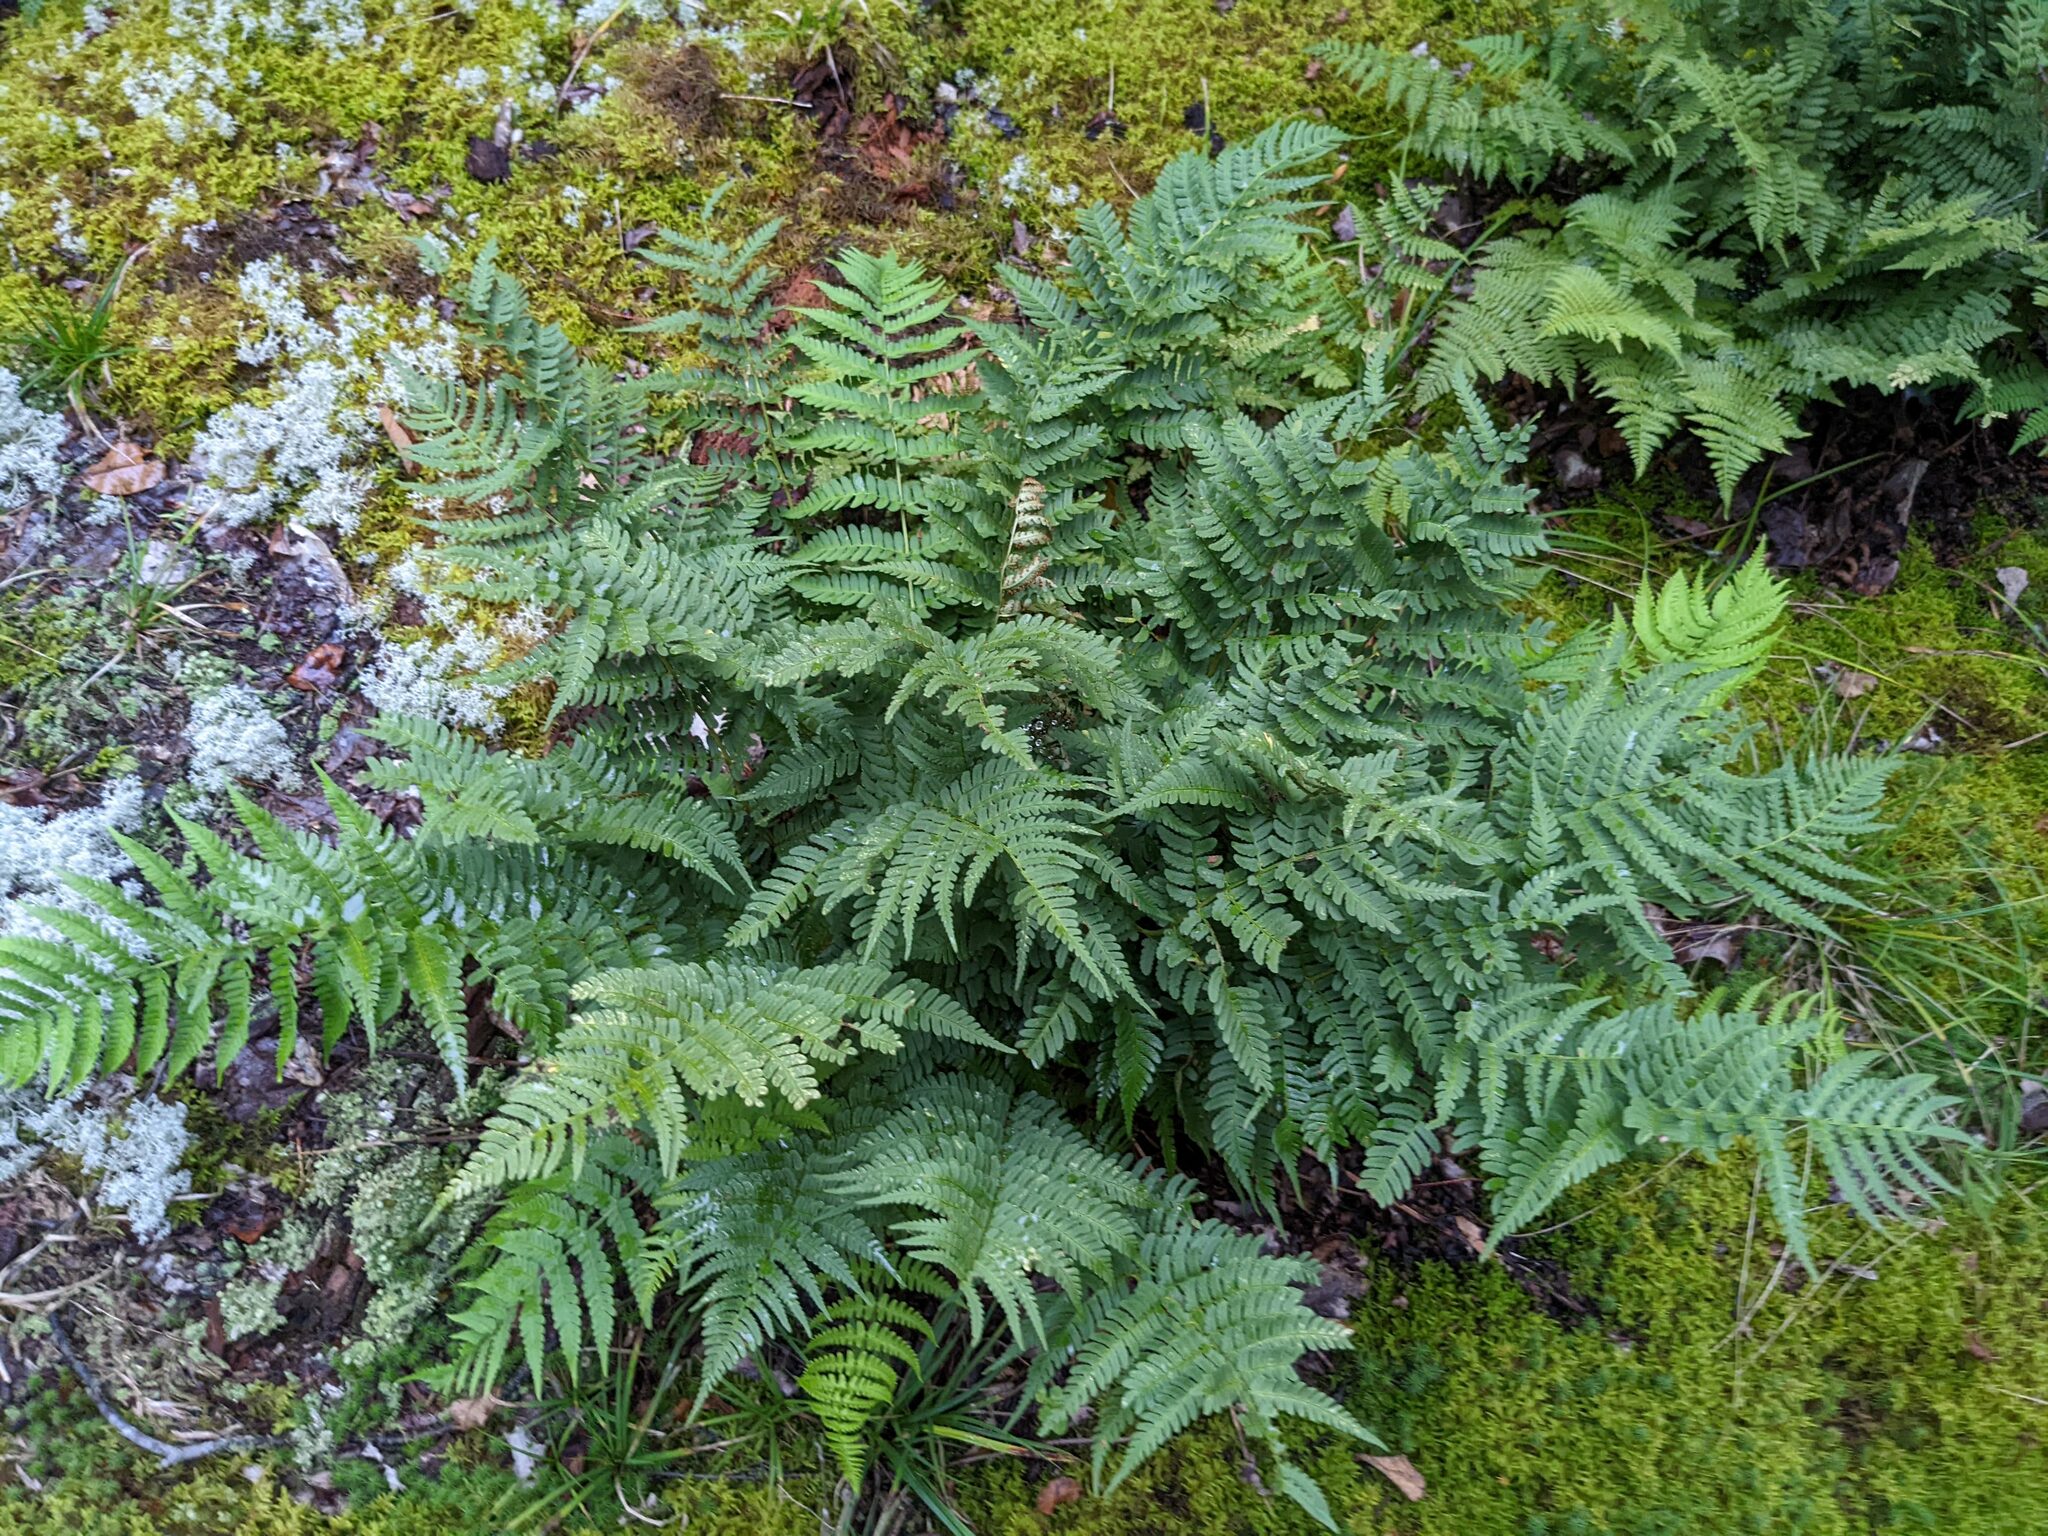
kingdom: Plantae
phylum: Tracheophyta
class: Polypodiopsida
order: Polypodiales
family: Dryopteridaceae
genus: Dryopteris
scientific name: Dryopteris marginalis
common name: Marginal wood fern
